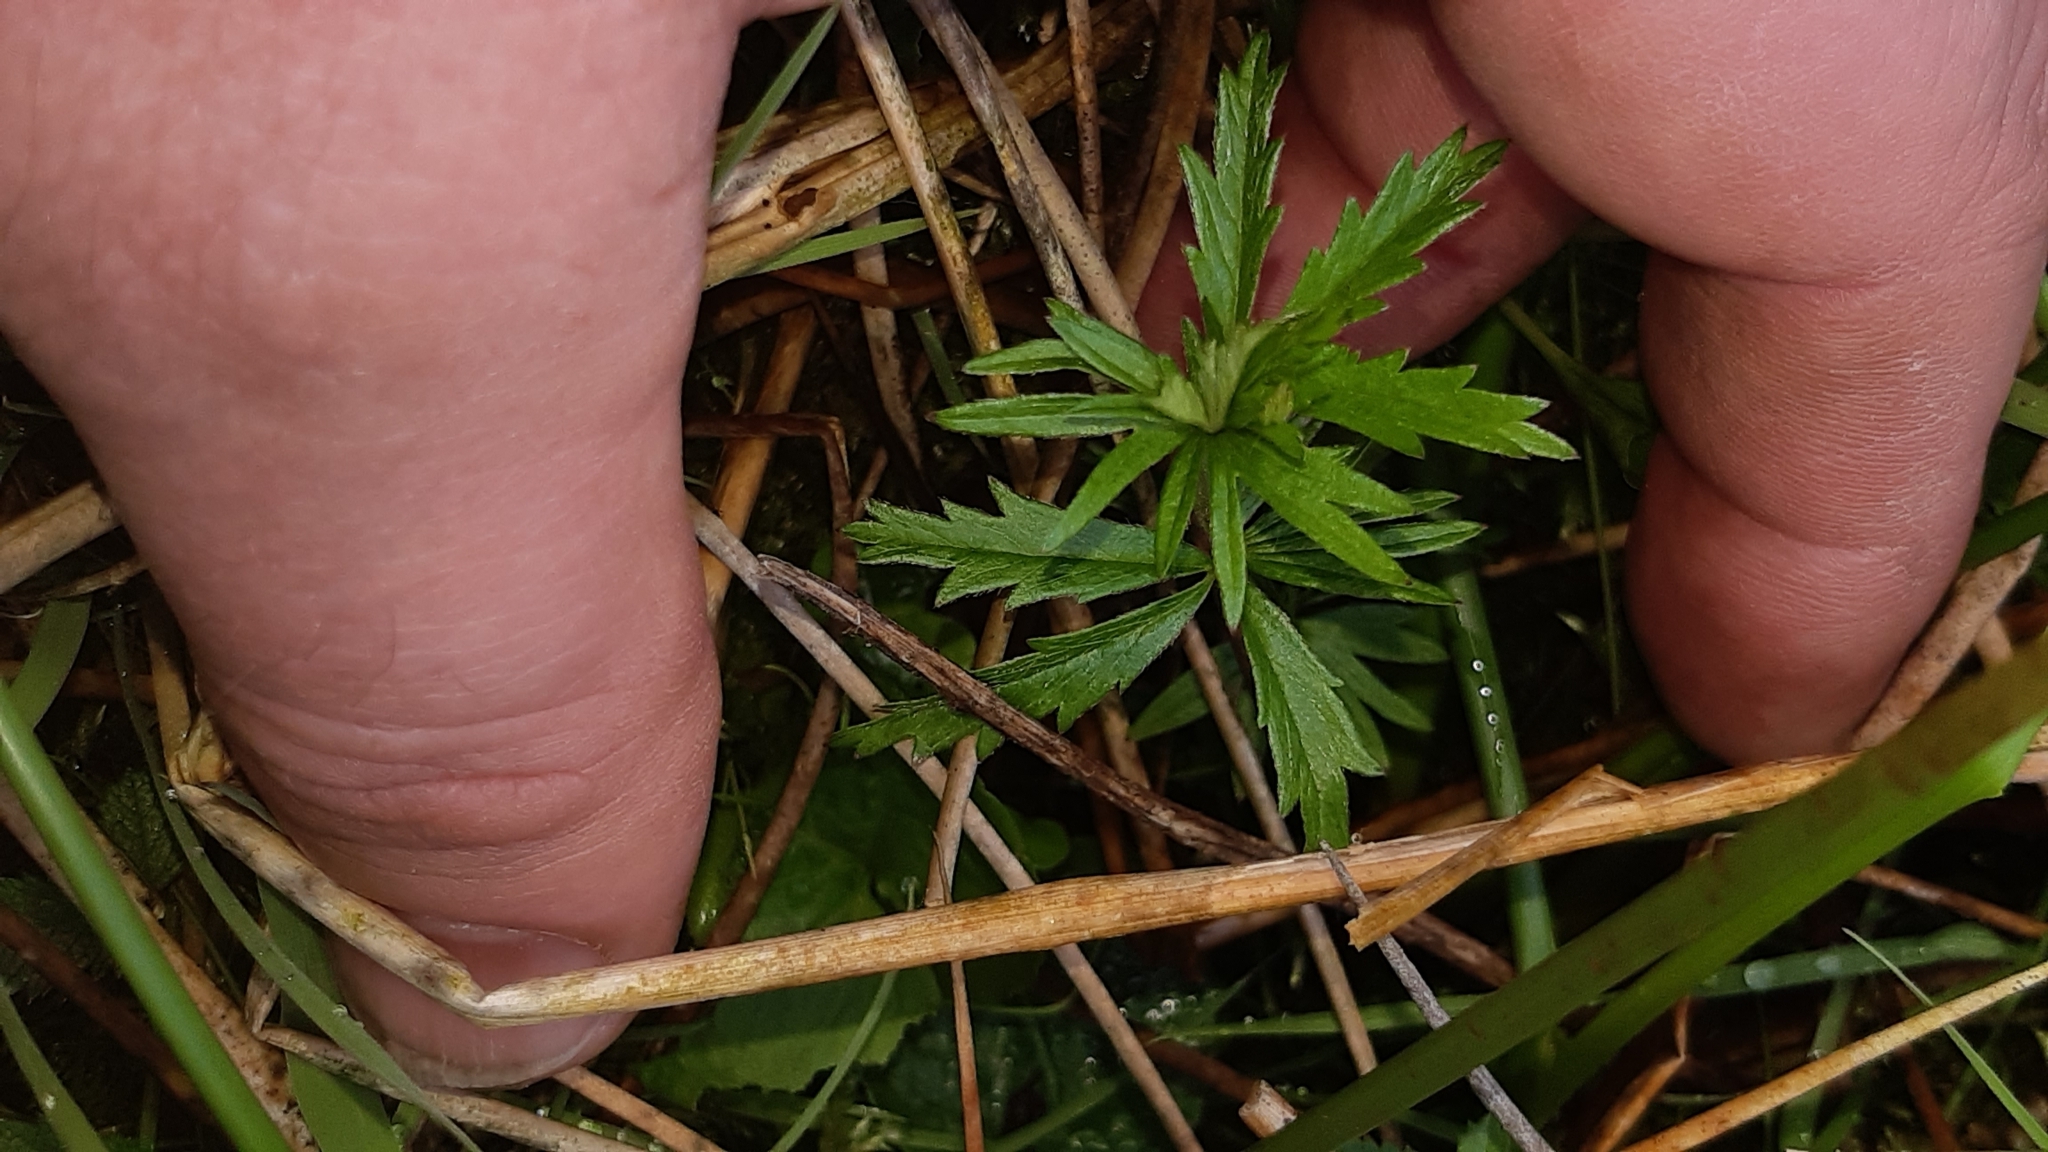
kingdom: Plantae
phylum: Tracheophyta
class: Magnoliopsida
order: Rosales
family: Rosaceae
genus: Potentilla
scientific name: Potentilla erecta
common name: Tormentil
